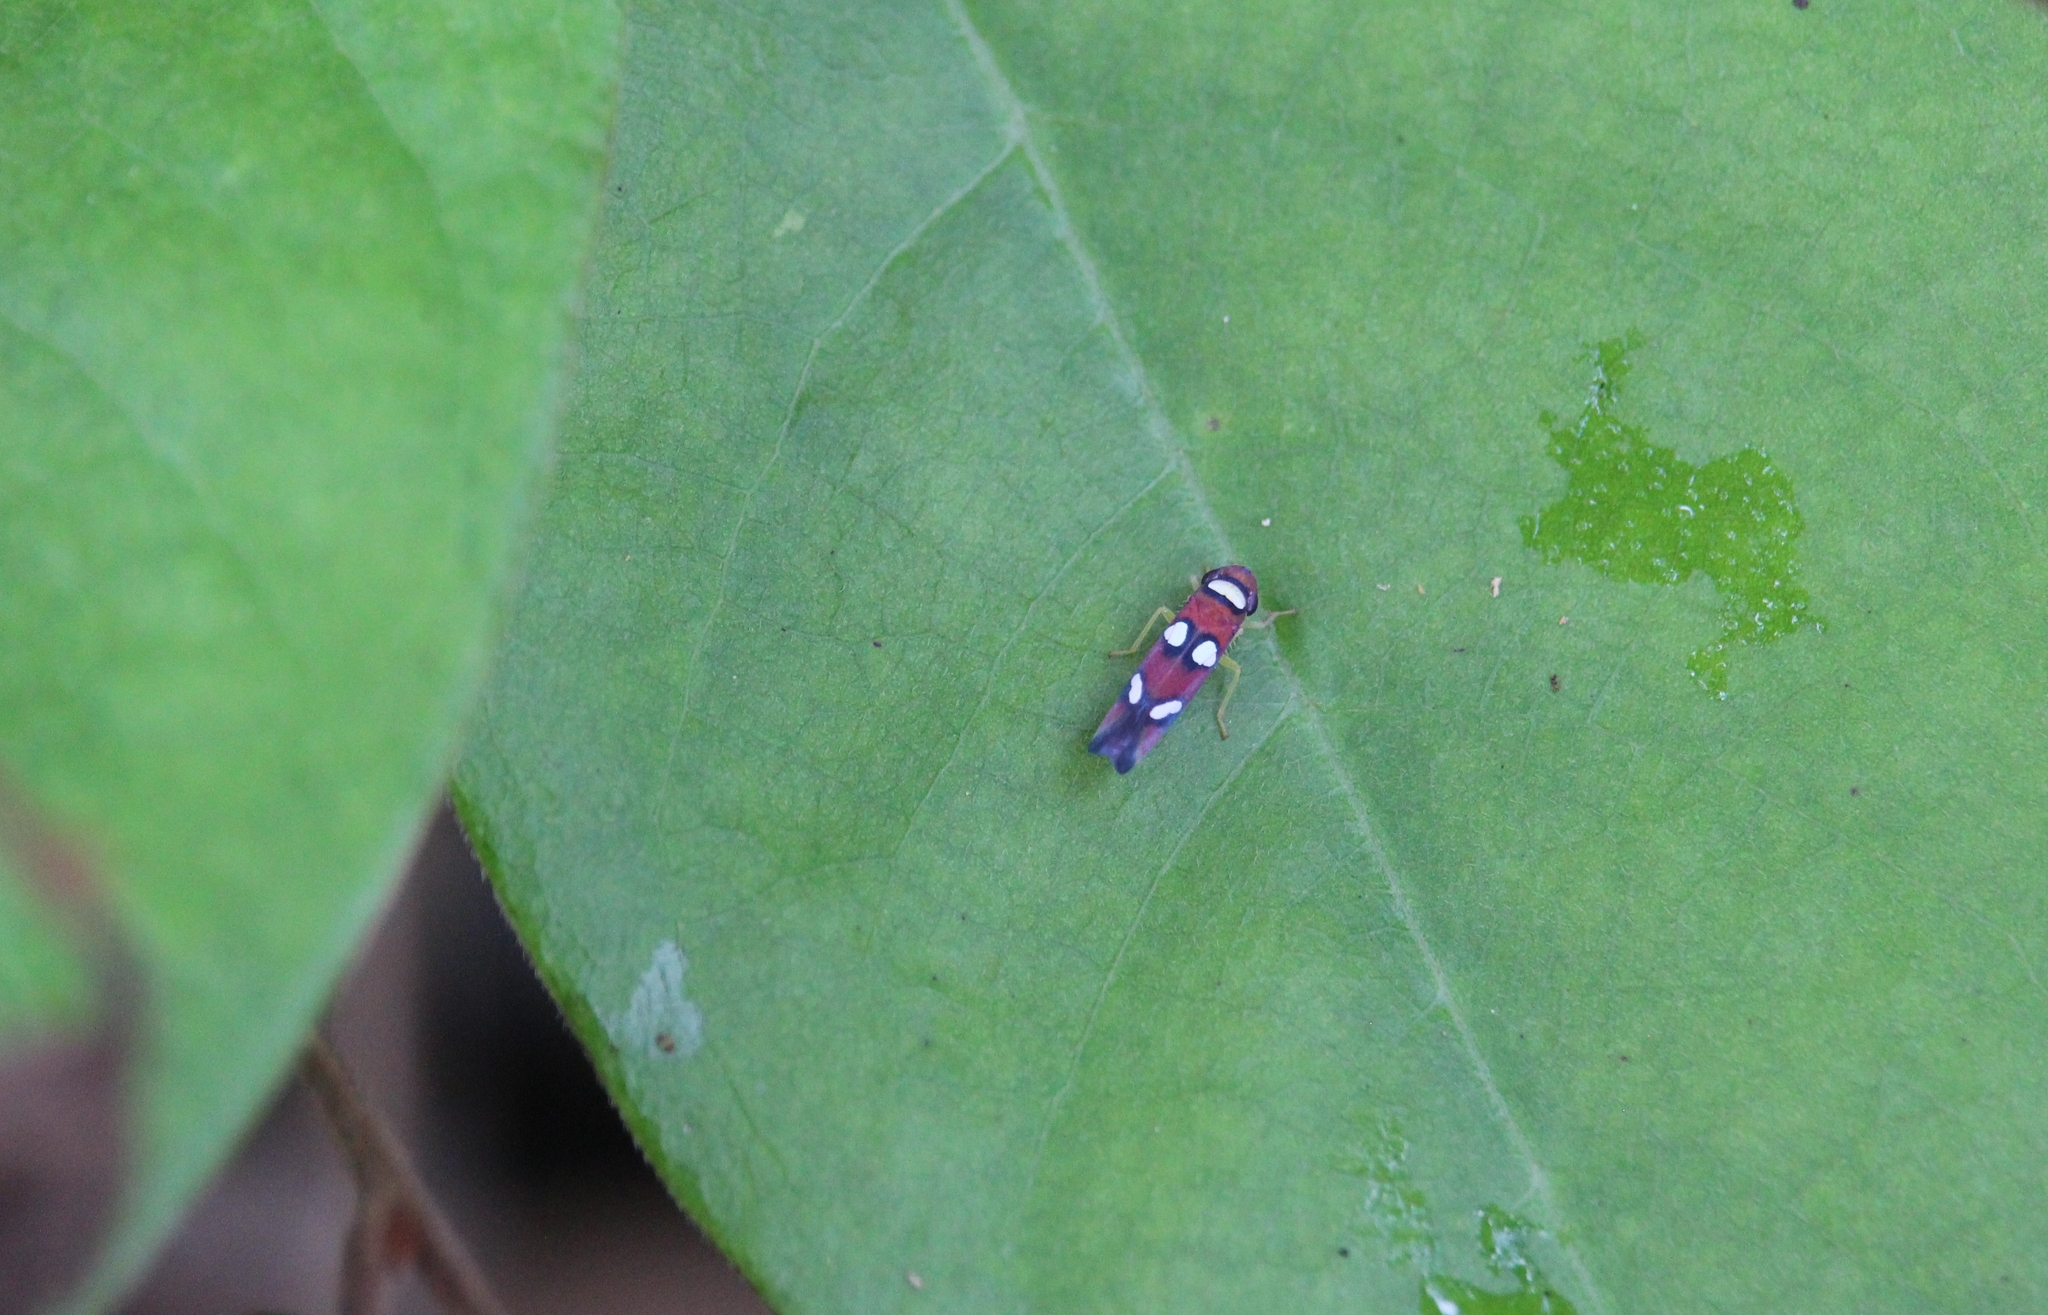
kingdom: Animalia
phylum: Arthropoda
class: Insecta
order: Hemiptera
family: Cicadellidae
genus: Erythrogonia
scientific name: Erythrogonia areolata
